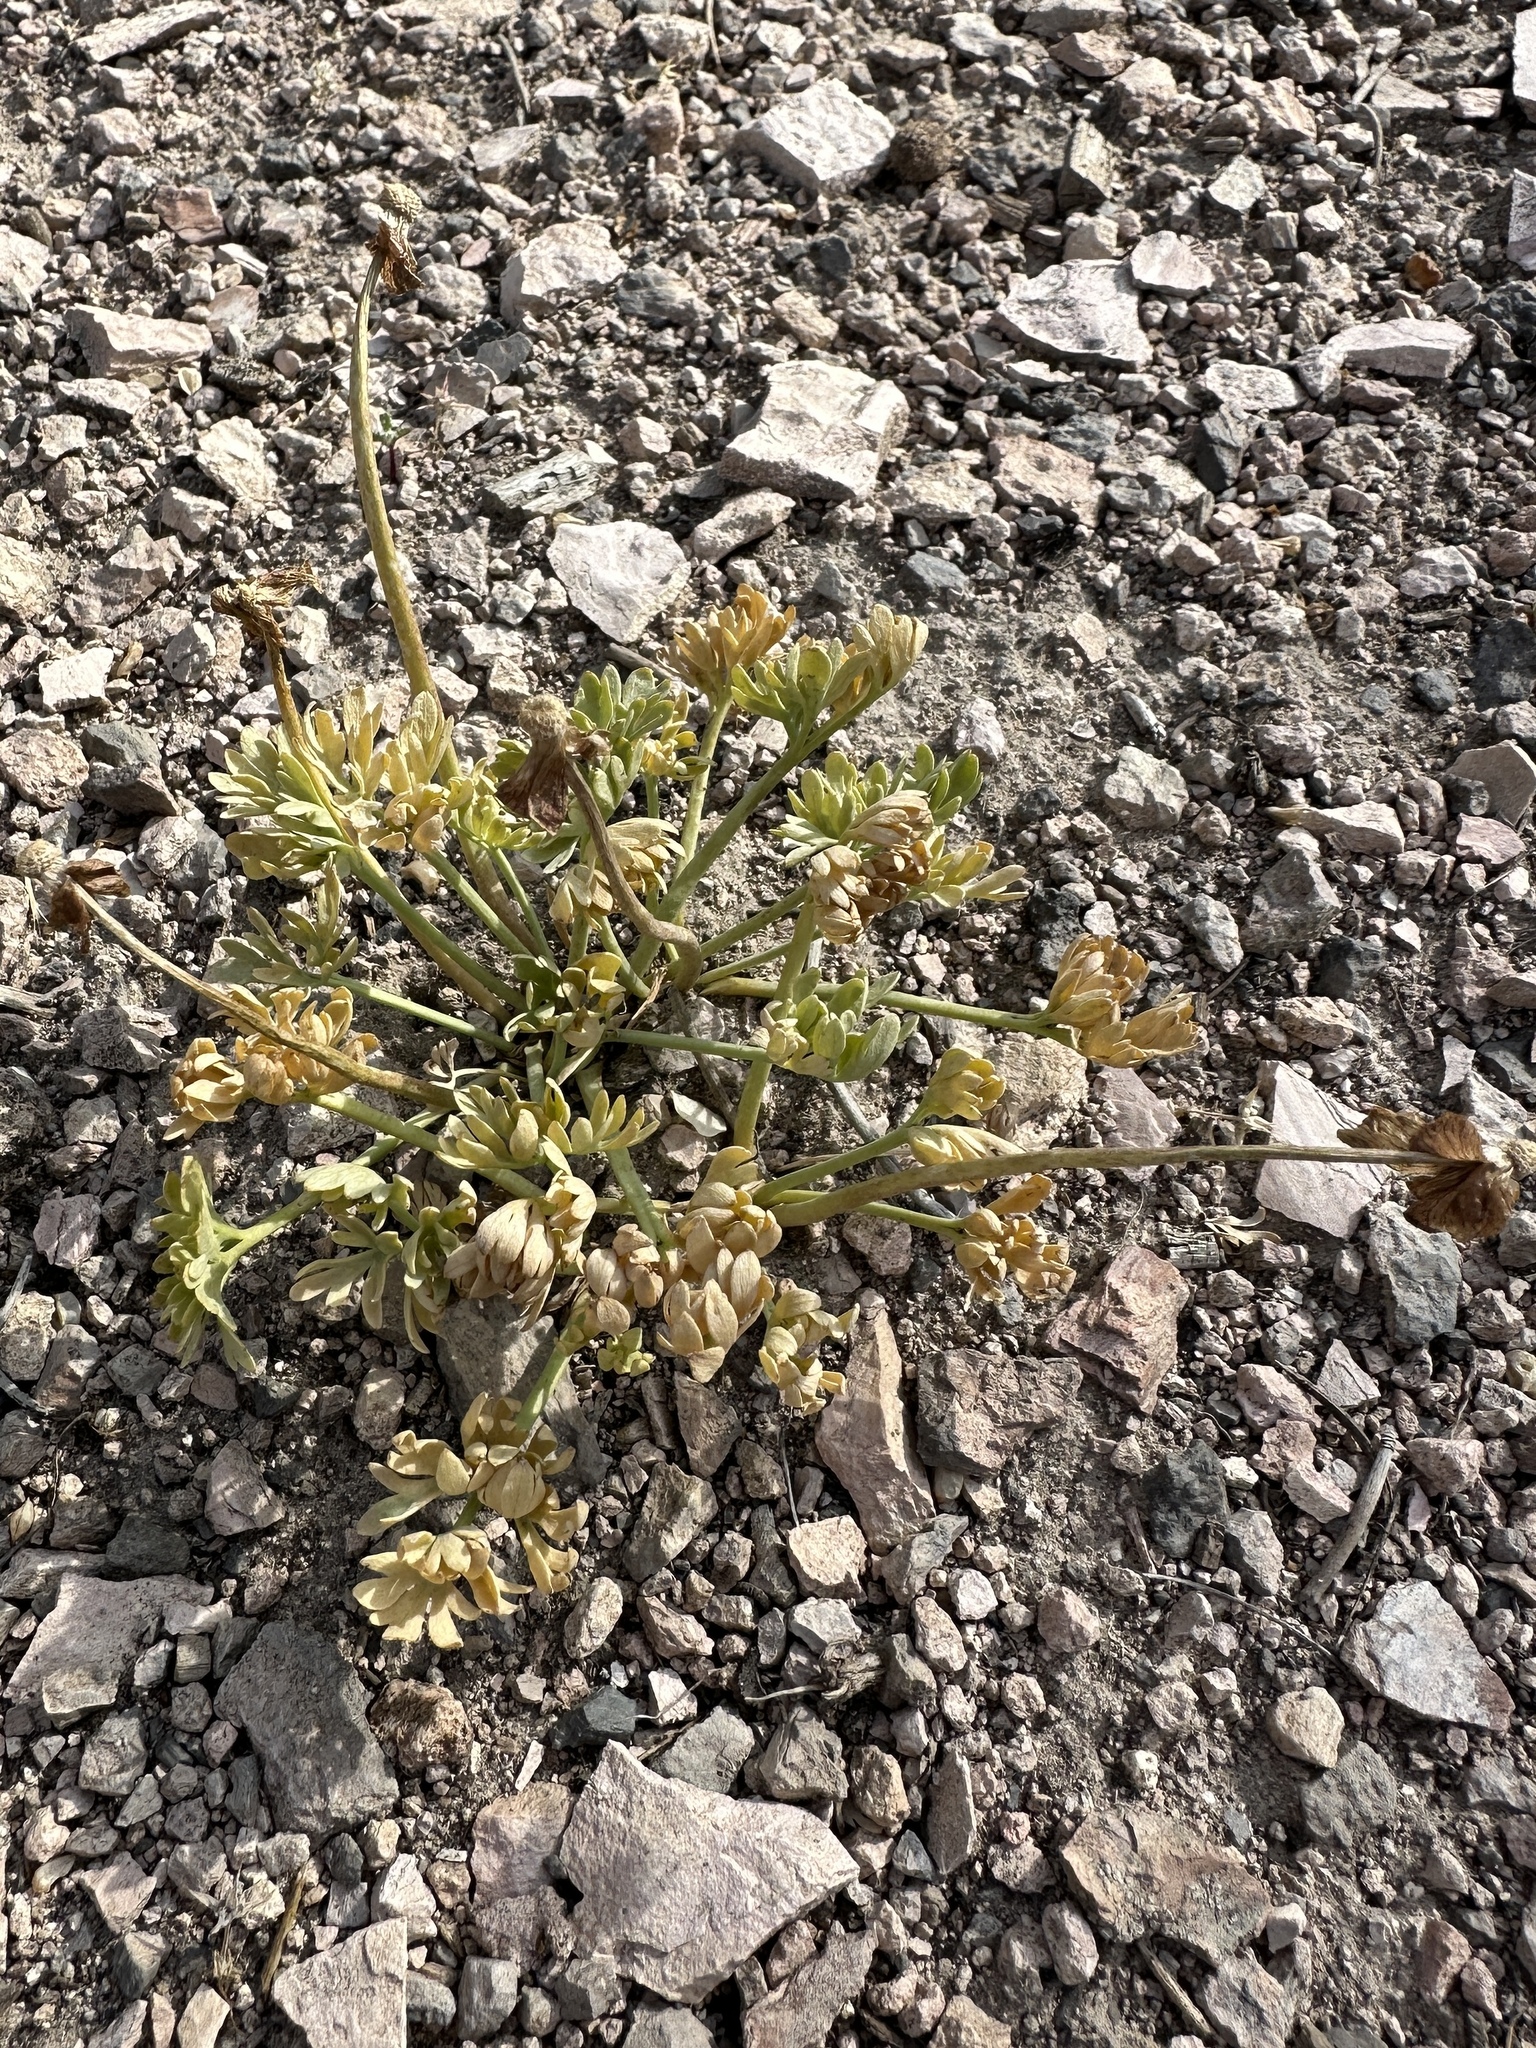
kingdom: Plantae
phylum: Tracheophyta
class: Magnoliopsida
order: Ranunculales
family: Ranunculaceae
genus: Beckwithia
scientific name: Beckwithia andersonii
